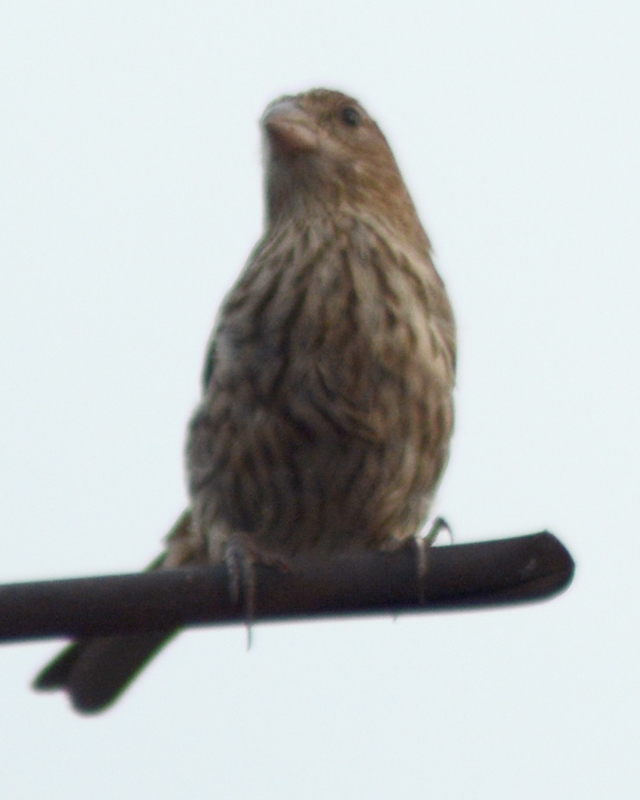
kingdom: Animalia
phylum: Chordata
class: Aves
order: Passeriformes
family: Fringillidae
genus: Haemorhous
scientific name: Haemorhous mexicanus
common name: House finch
